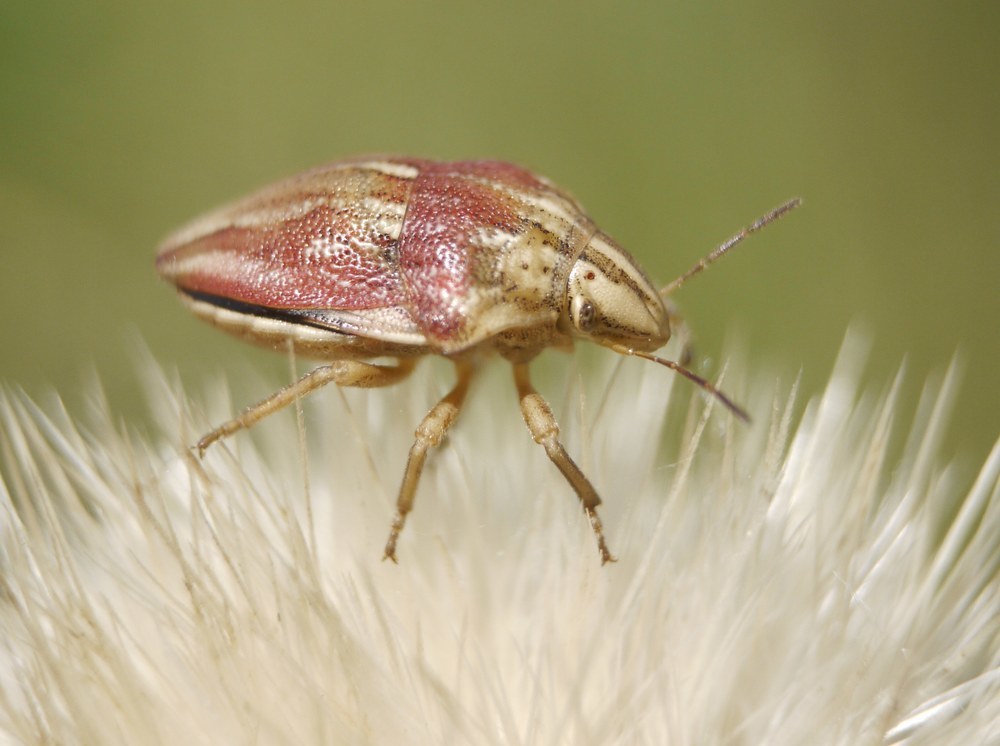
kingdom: Animalia
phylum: Arthropoda
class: Insecta
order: Hemiptera
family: Scutelleridae
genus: Odontotarsus
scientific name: Odontotarsus purpureolineatus
